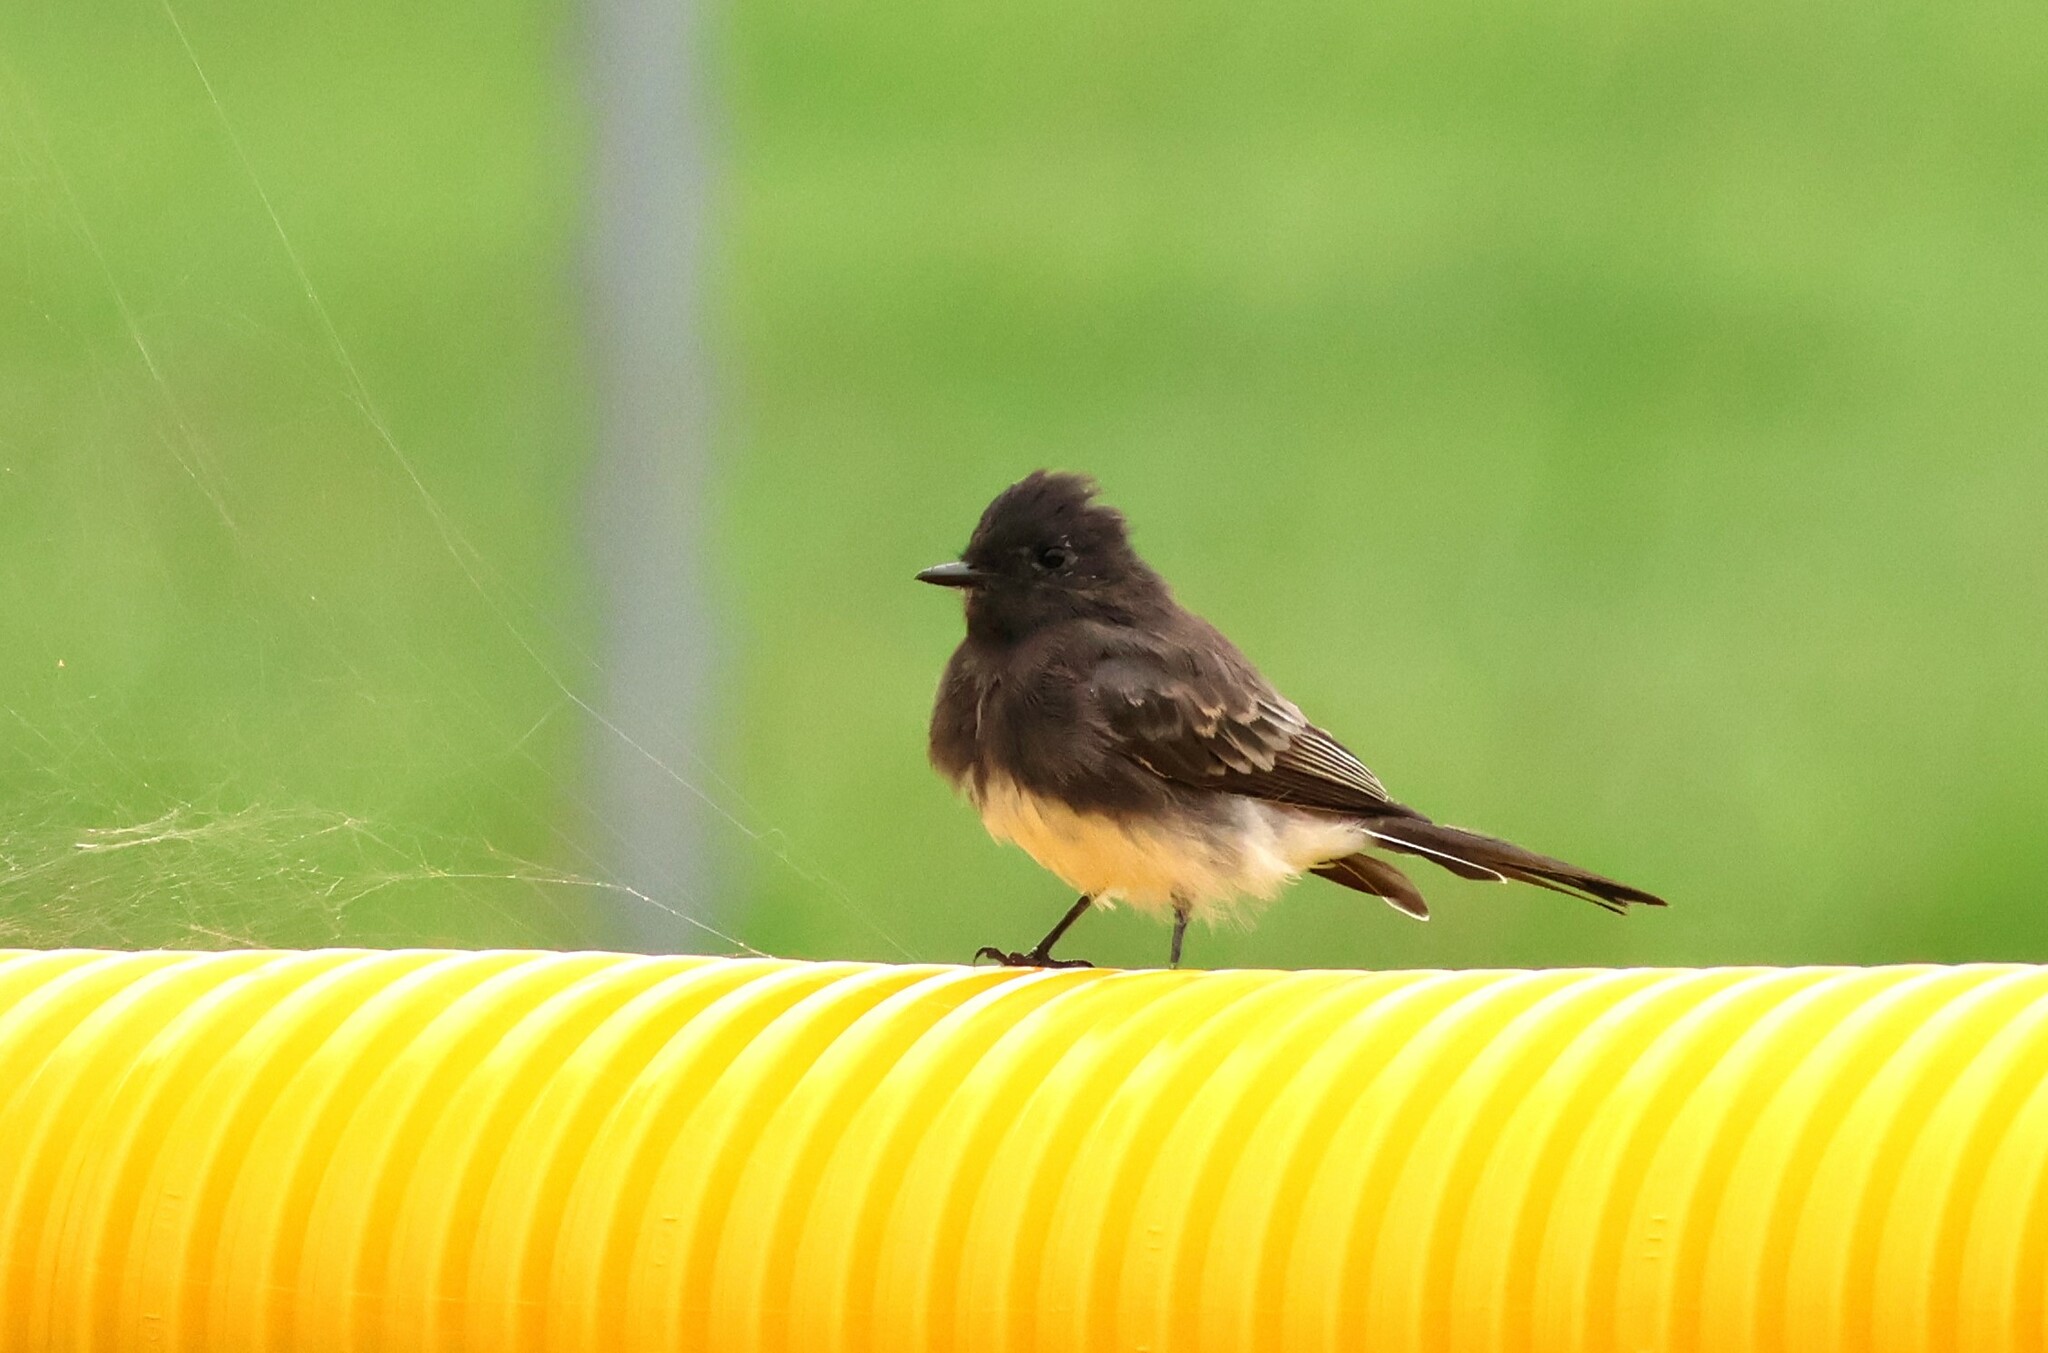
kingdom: Animalia
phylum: Chordata
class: Aves
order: Passeriformes
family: Tyrannidae
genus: Sayornis
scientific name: Sayornis nigricans
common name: Black phoebe
